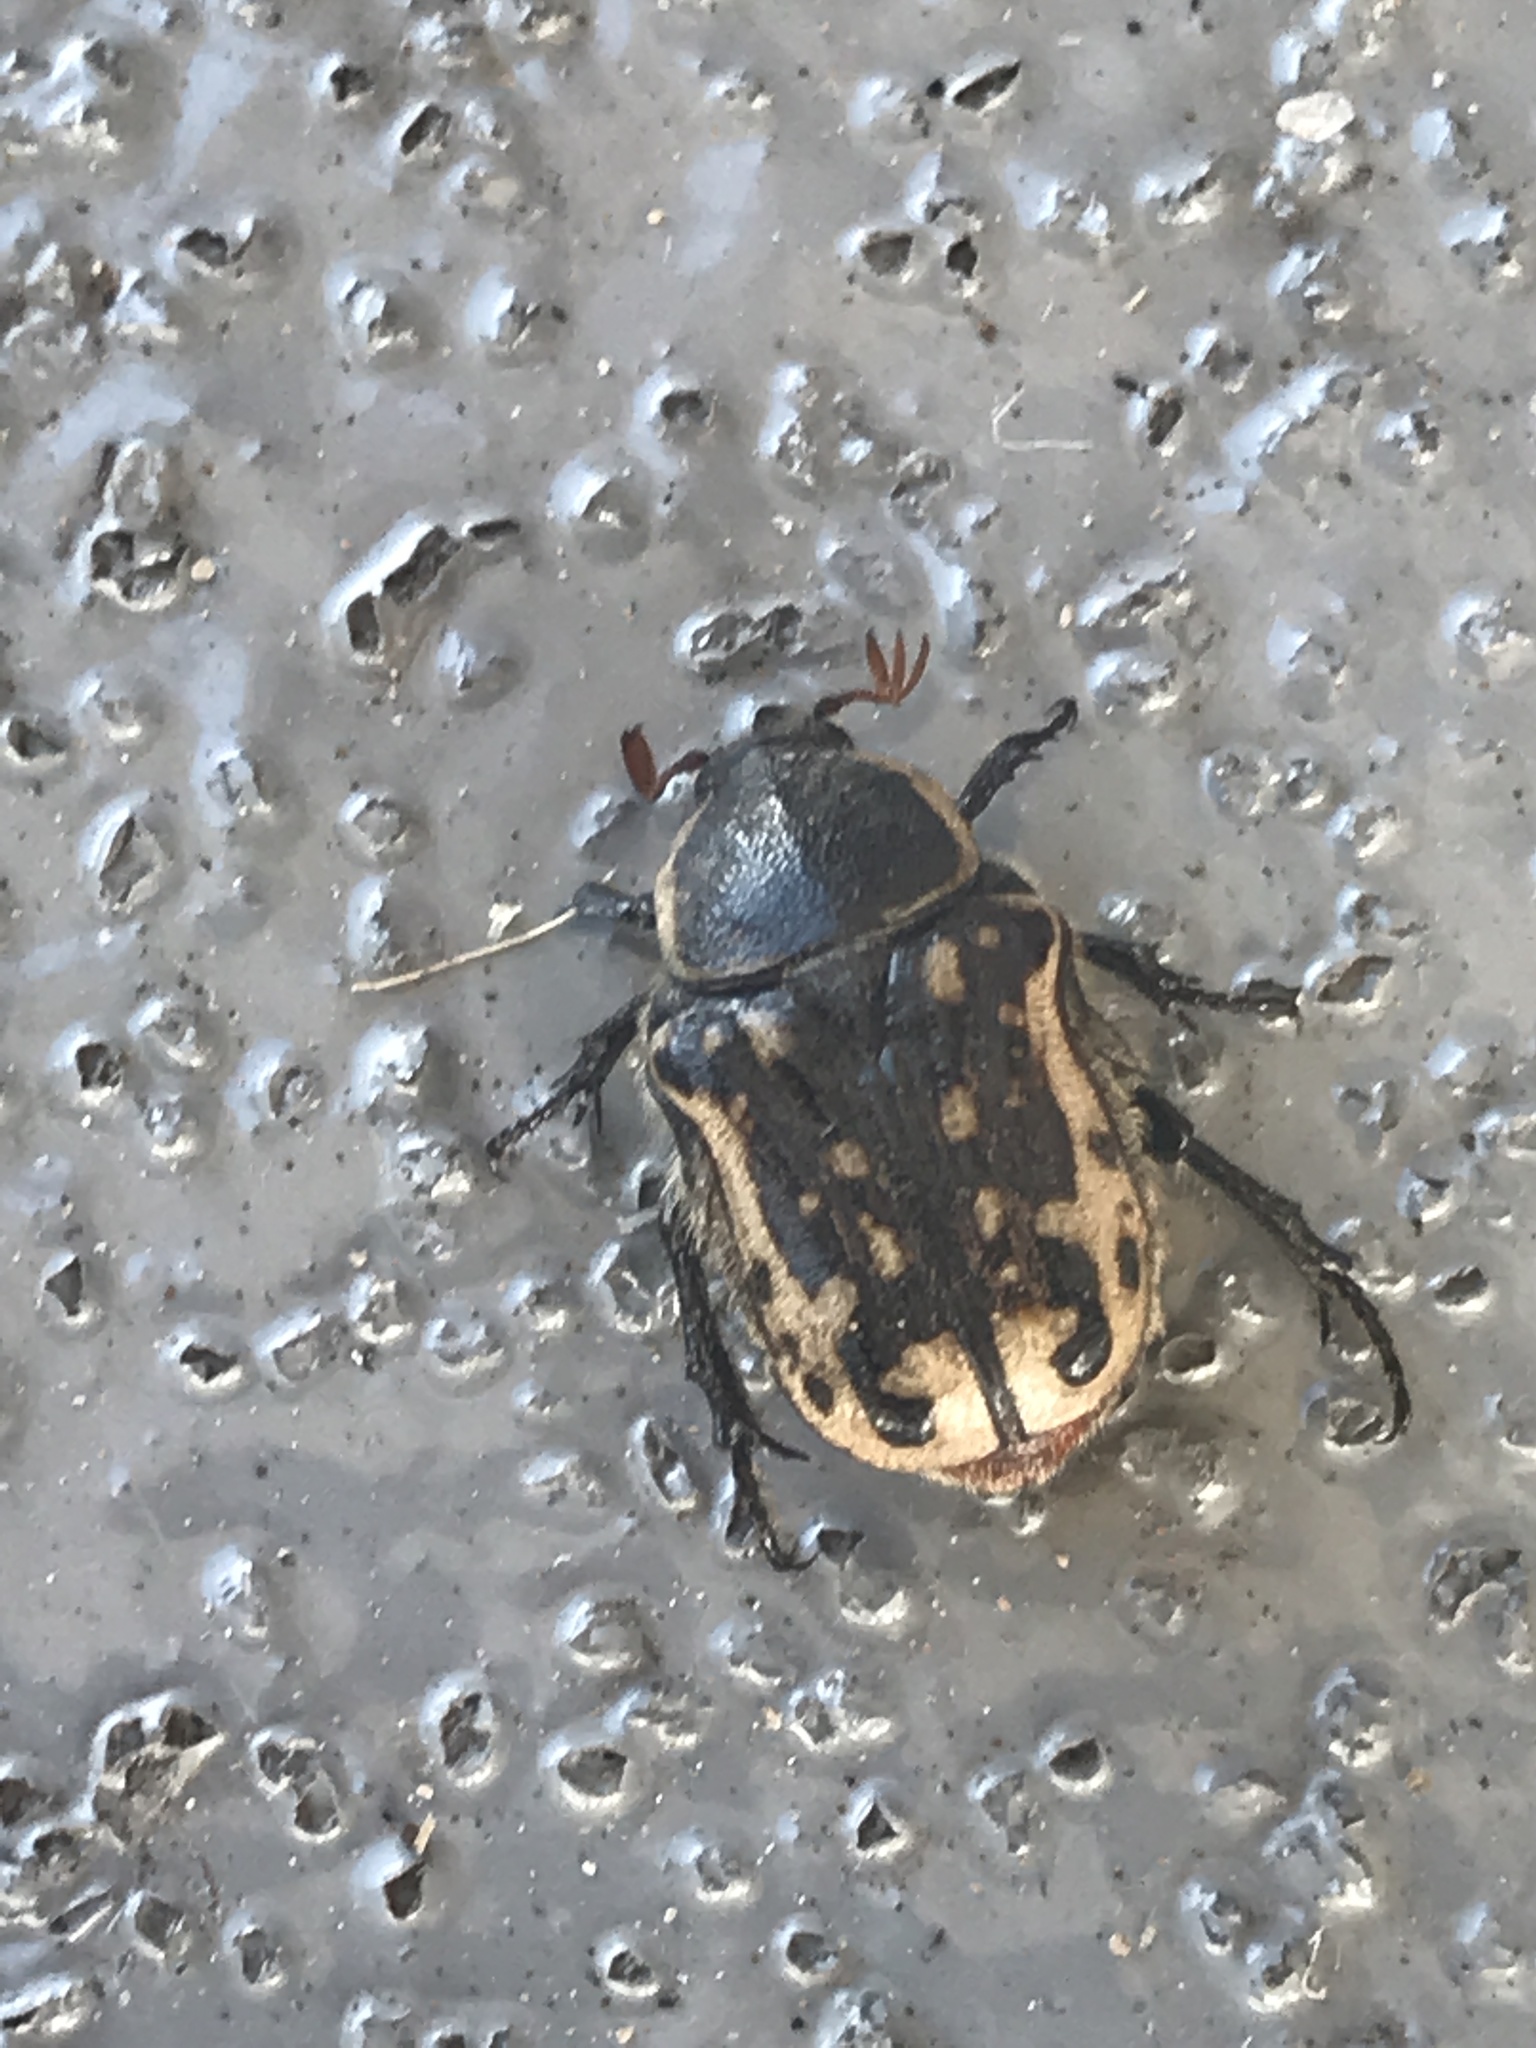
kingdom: Animalia
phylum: Arthropoda
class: Insecta
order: Coleoptera
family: Scarabaeidae
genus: Euphoria
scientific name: Euphoria kernii
